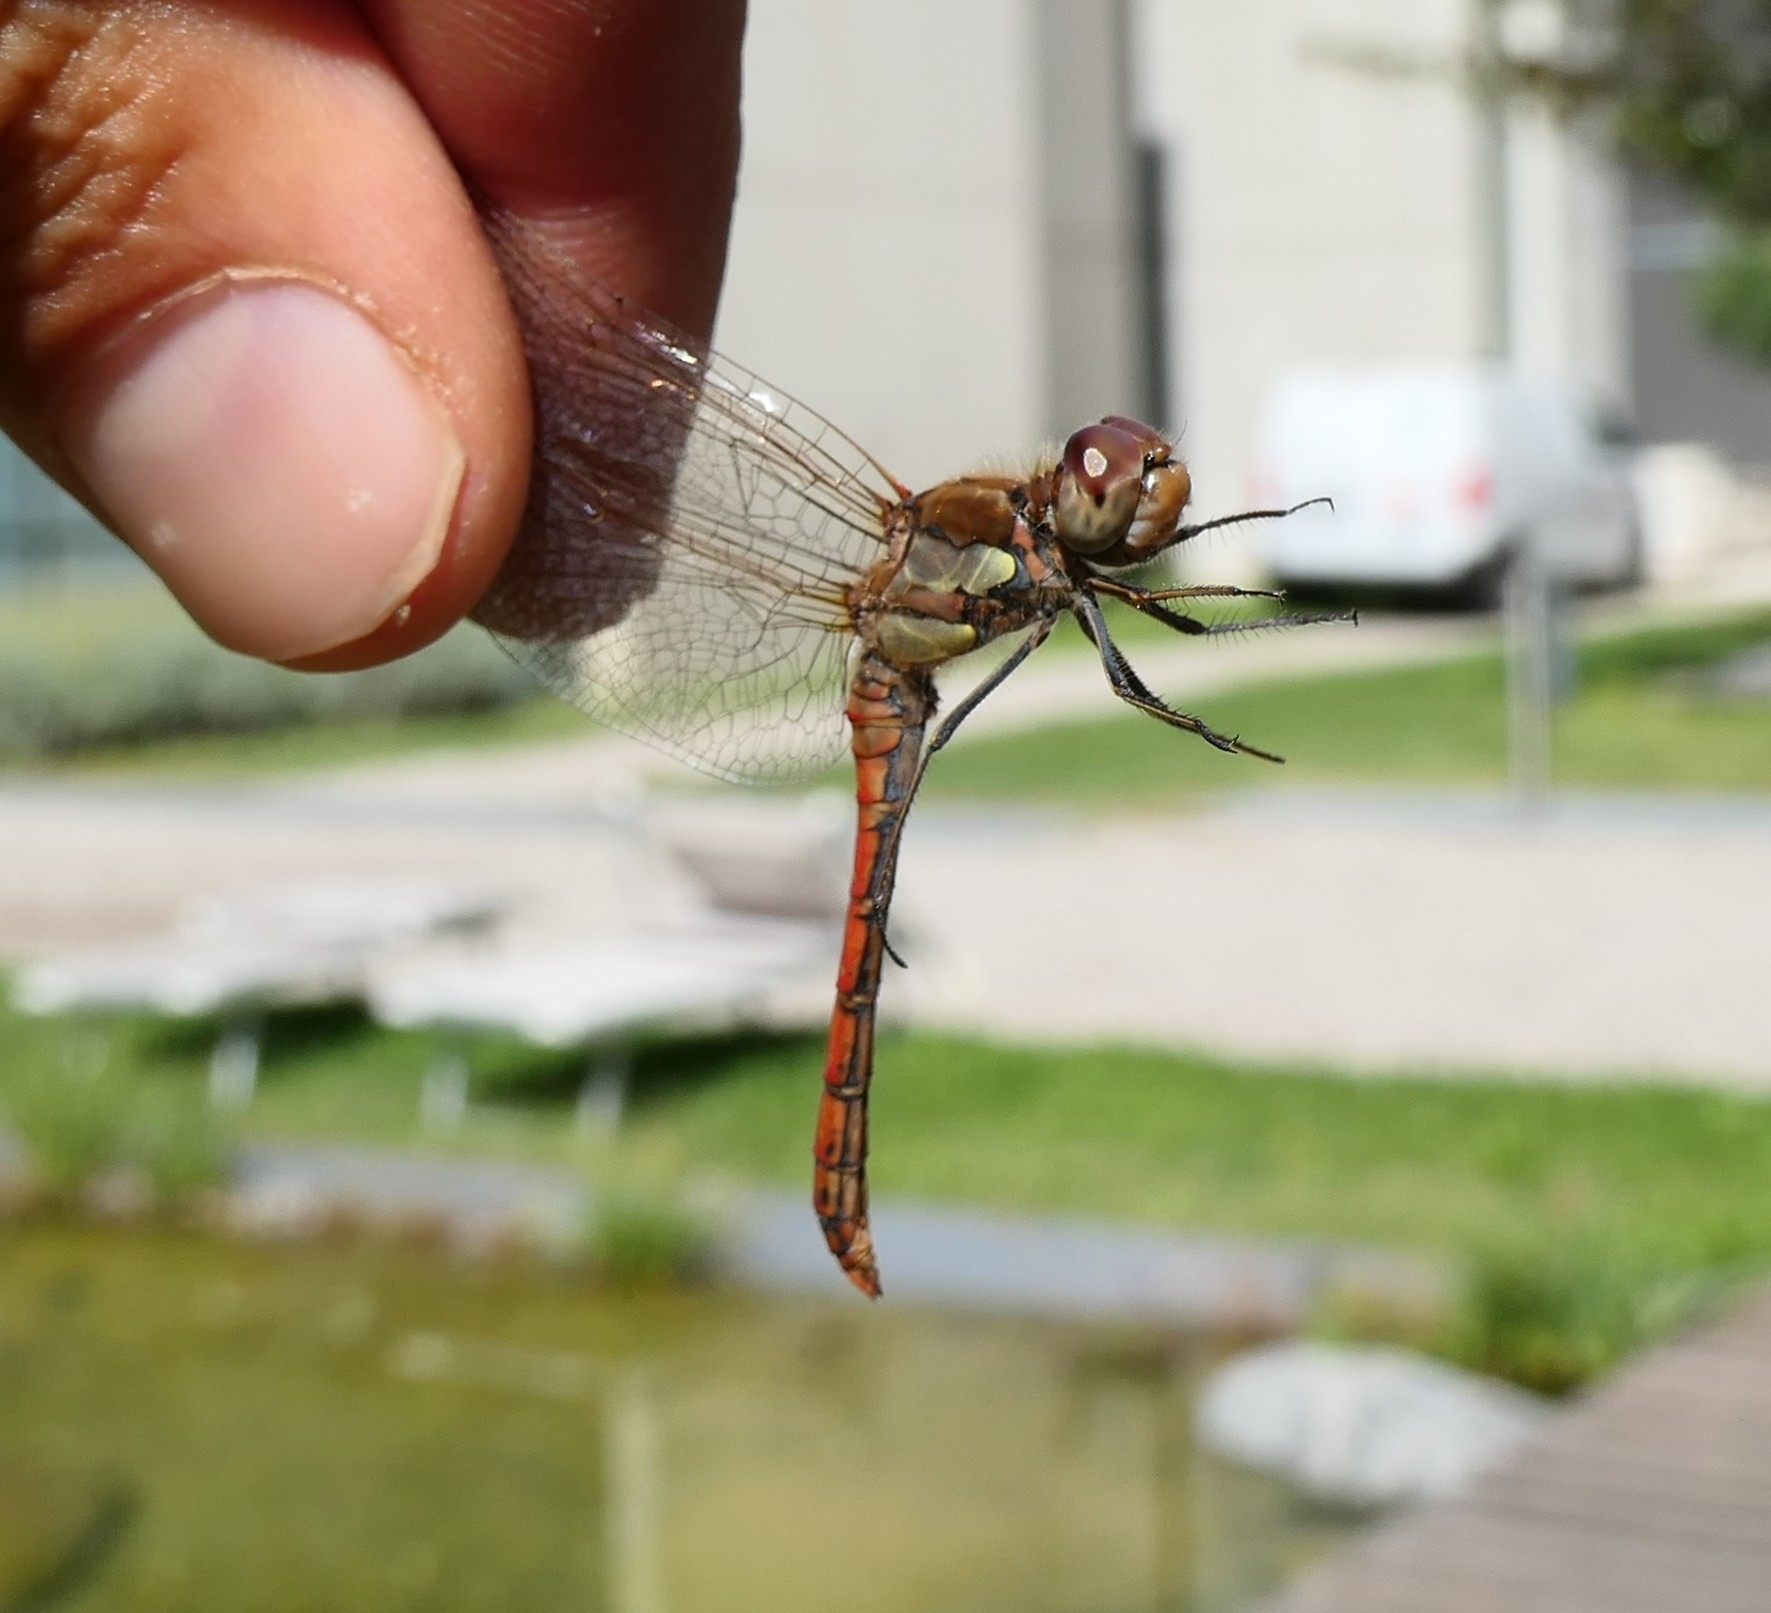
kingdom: Animalia
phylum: Arthropoda
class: Insecta
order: Odonata
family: Libellulidae
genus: Sympetrum
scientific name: Sympetrum striolatum
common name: Common darter
